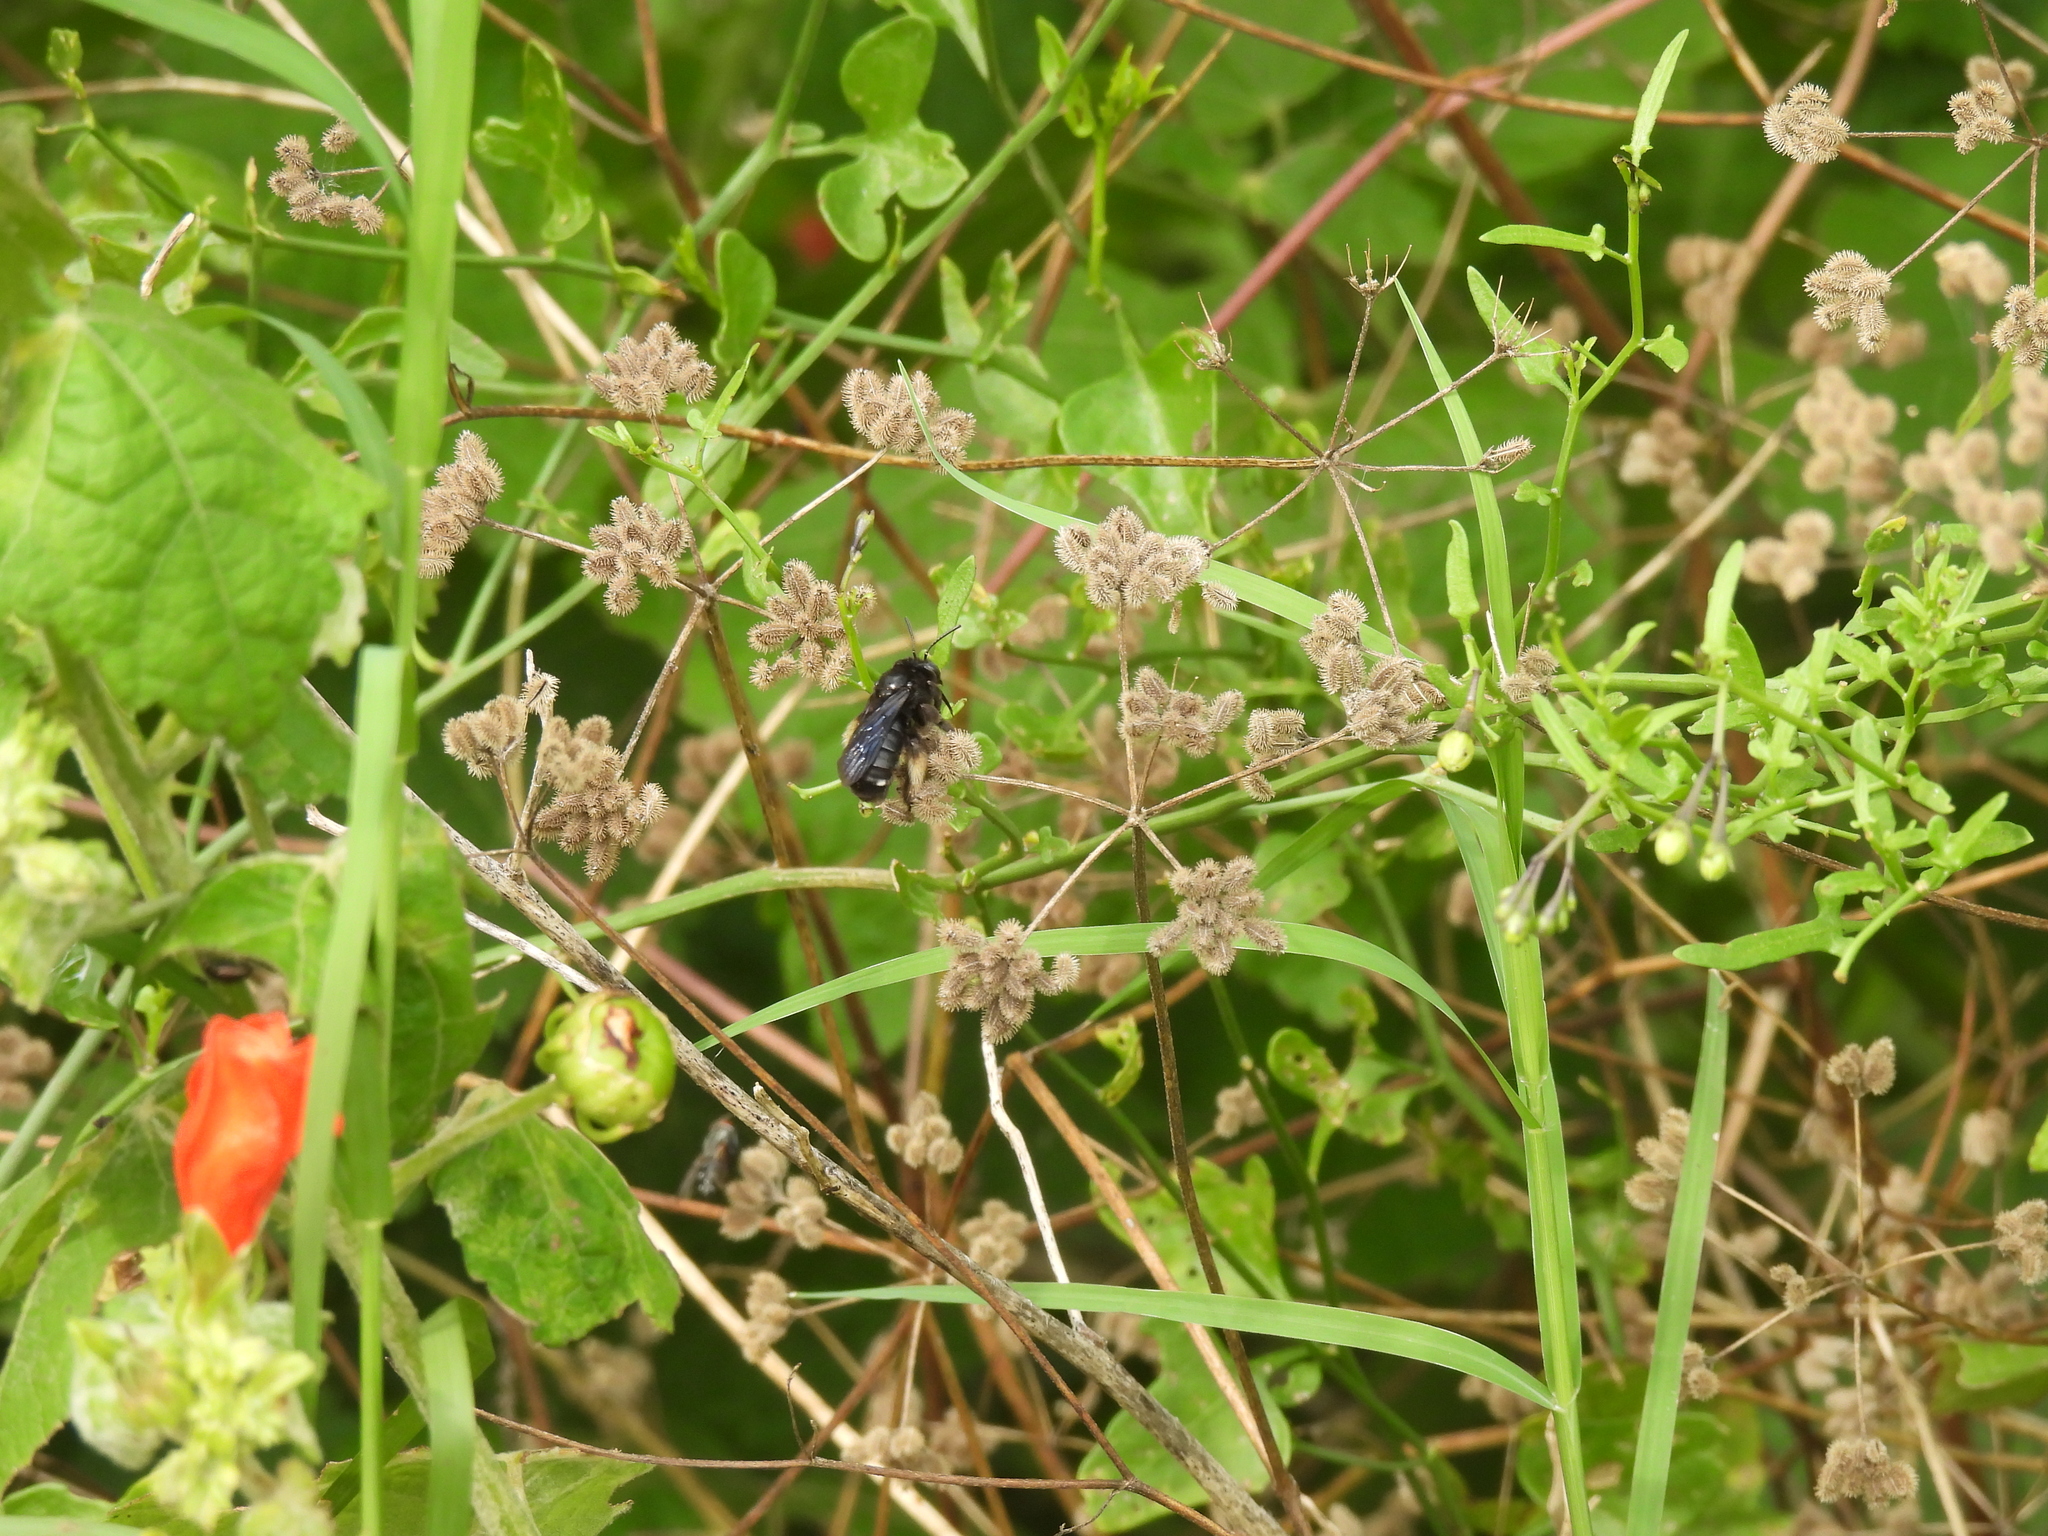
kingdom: Animalia
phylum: Arthropoda
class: Insecta
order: Hymenoptera
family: Apidae
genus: Melissodes
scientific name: Melissodes bimaculatus
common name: Two-spotted long-horned bee
